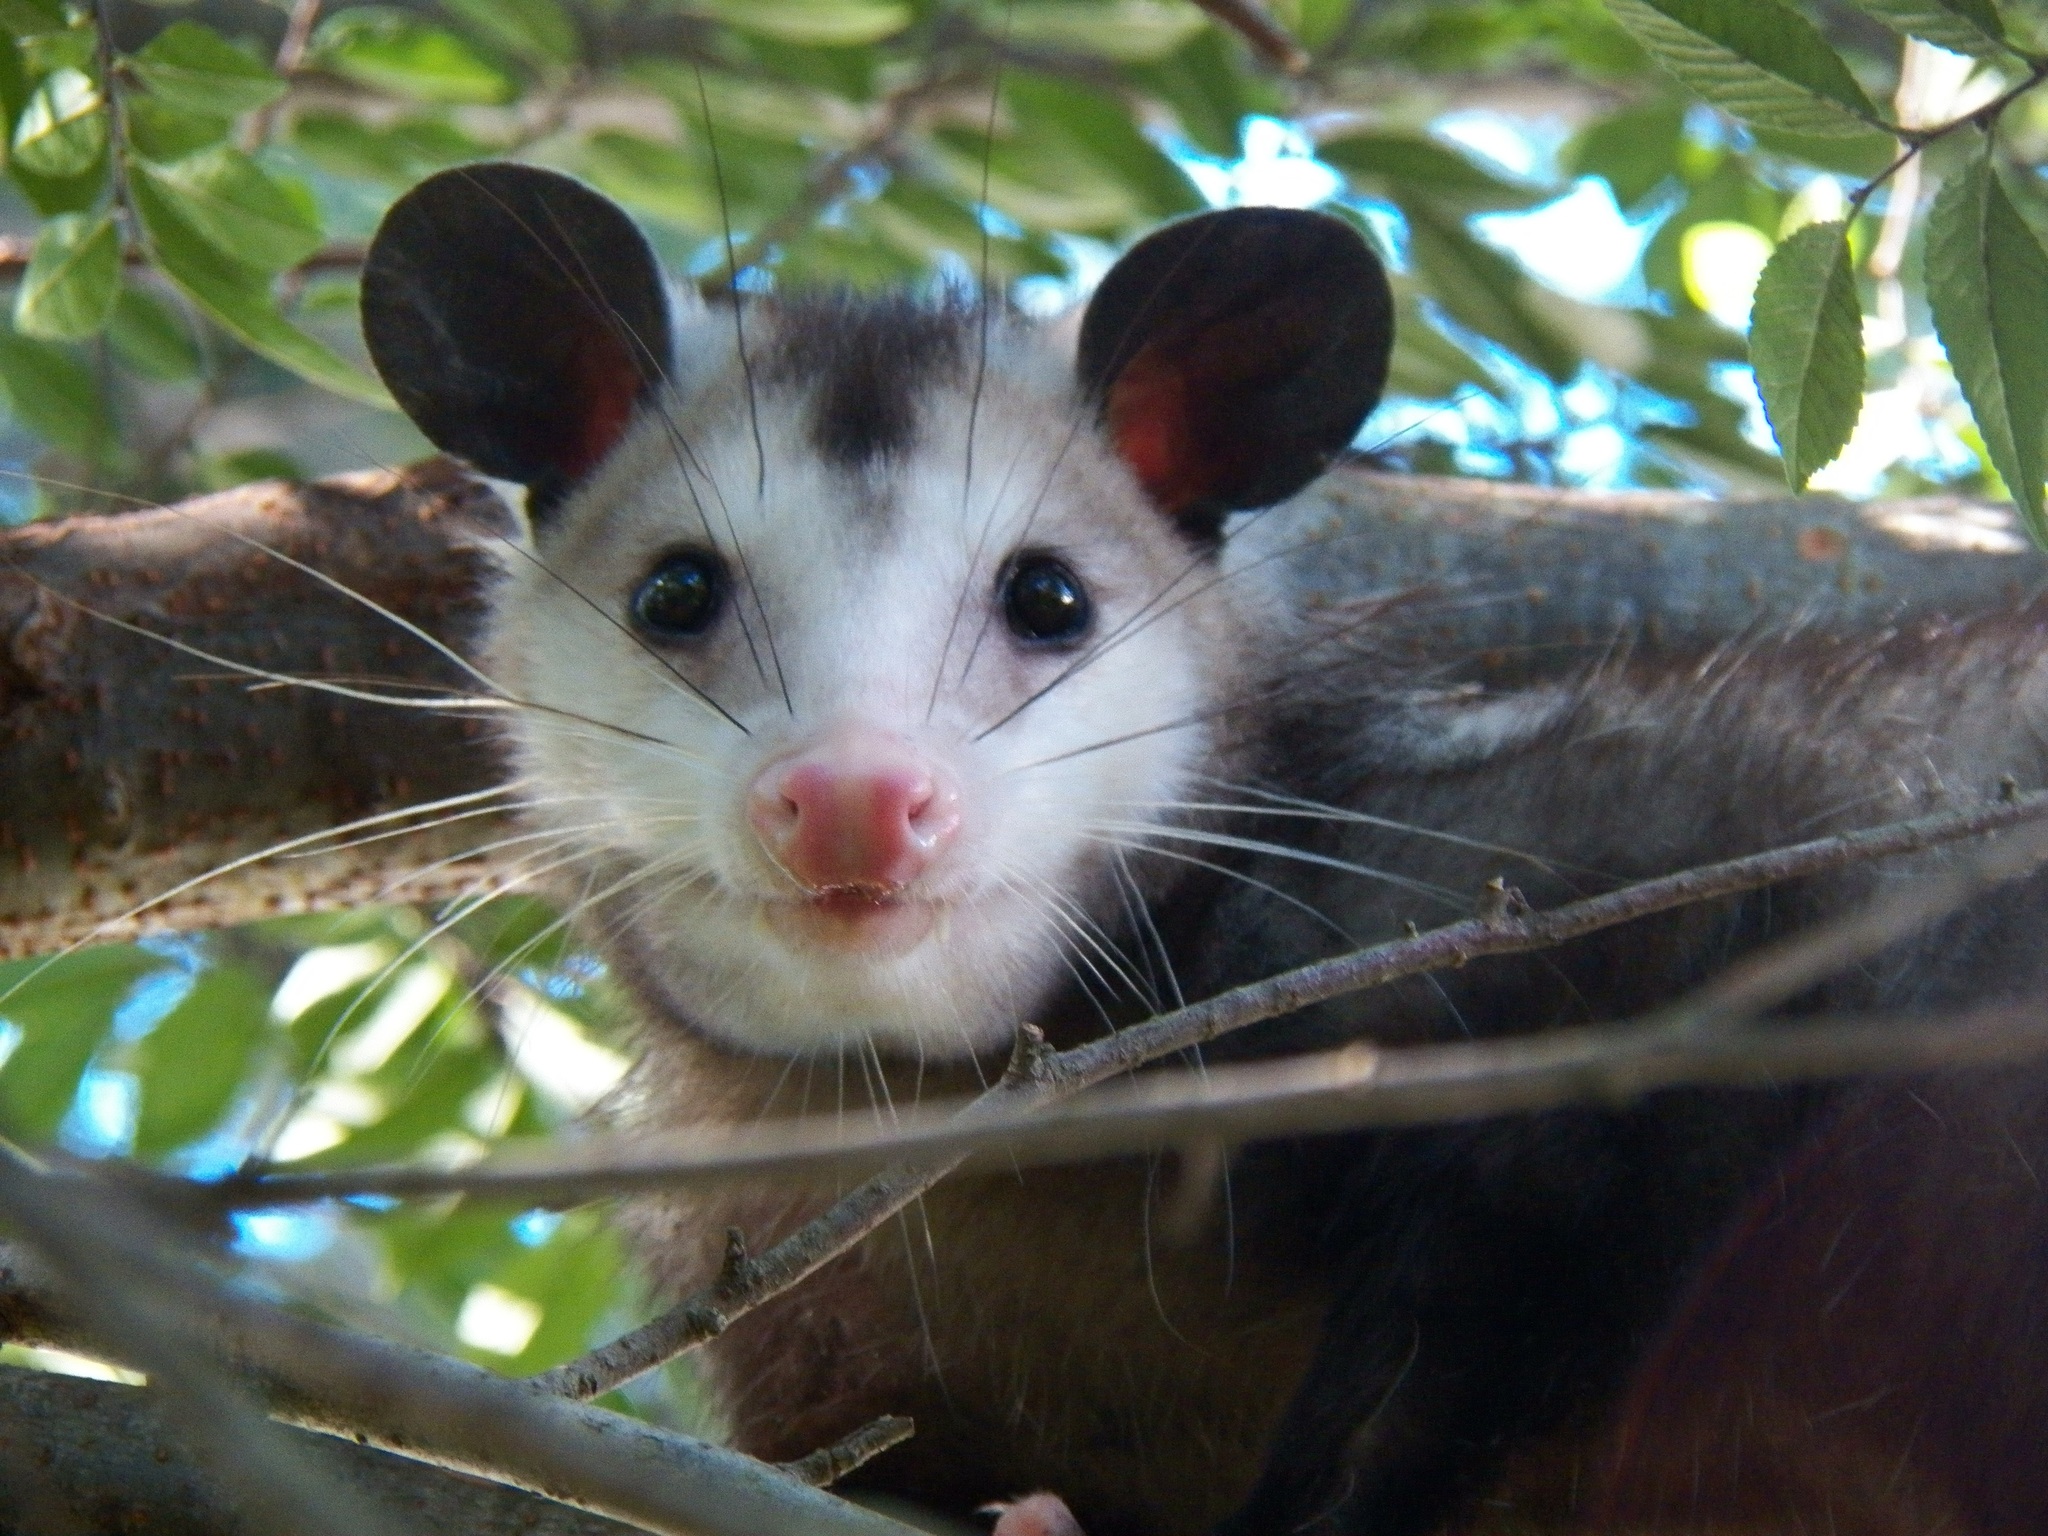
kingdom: Animalia
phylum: Chordata
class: Mammalia
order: Didelphimorphia
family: Didelphidae
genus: Didelphis
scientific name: Didelphis virginiana
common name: Virginia opossum
